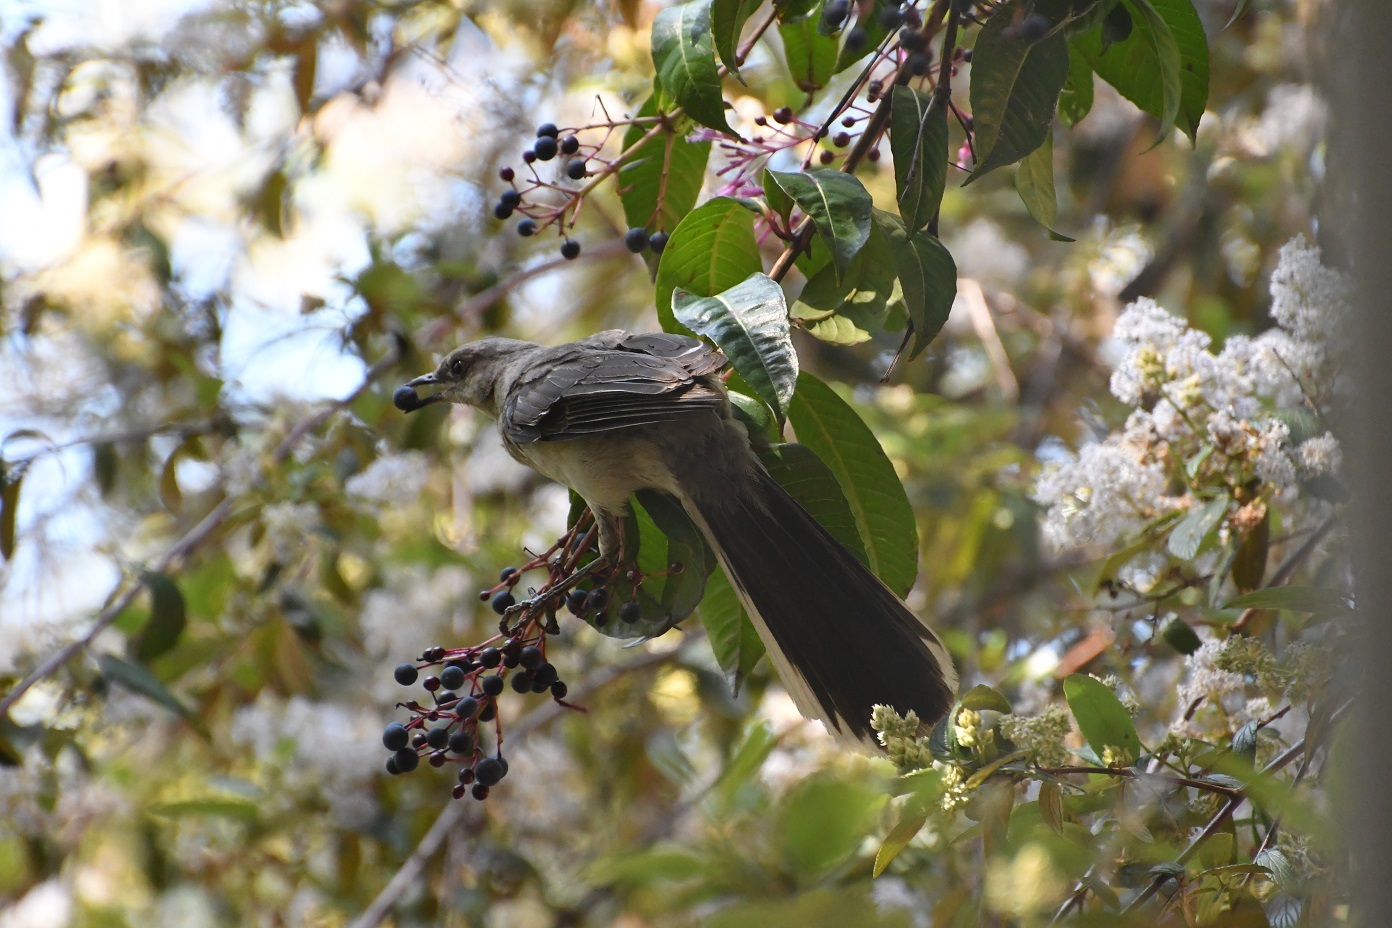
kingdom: Animalia
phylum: Chordata
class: Aves
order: Passeriformes
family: Mimidae
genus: Mimus
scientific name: Mimus gilvus
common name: Tropical mockingbird
